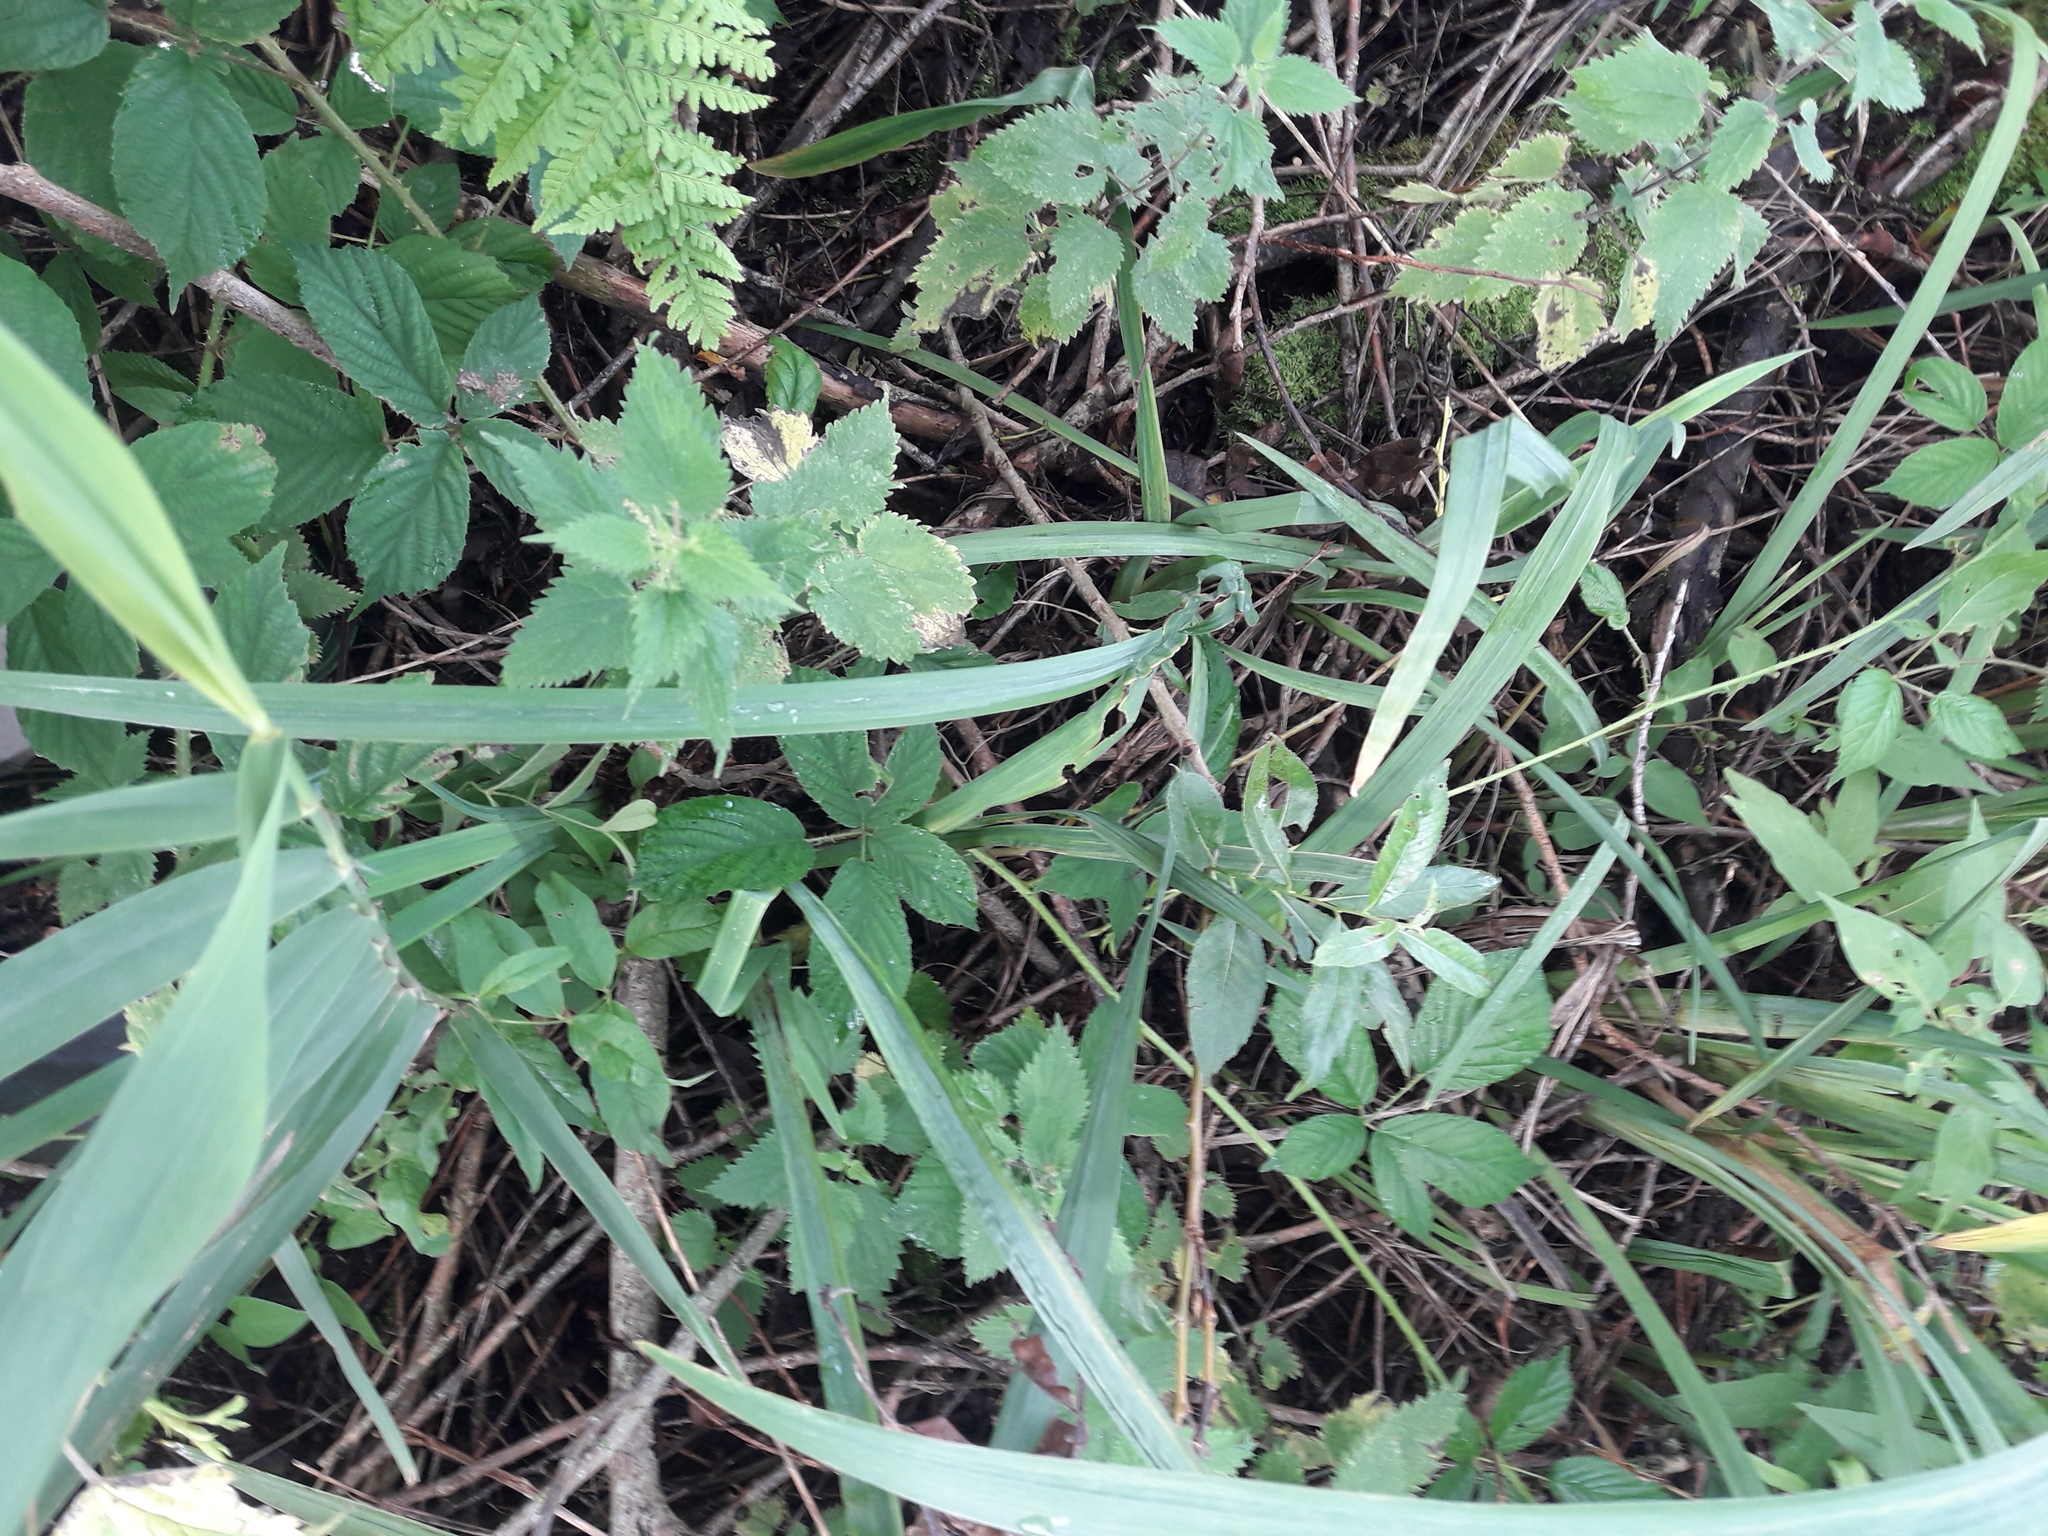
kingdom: Plantae
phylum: Tracheophyta
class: Liliopsida
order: Poales
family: Poaceae
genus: Phragmites
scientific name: Phragmites australis
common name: Common reed
